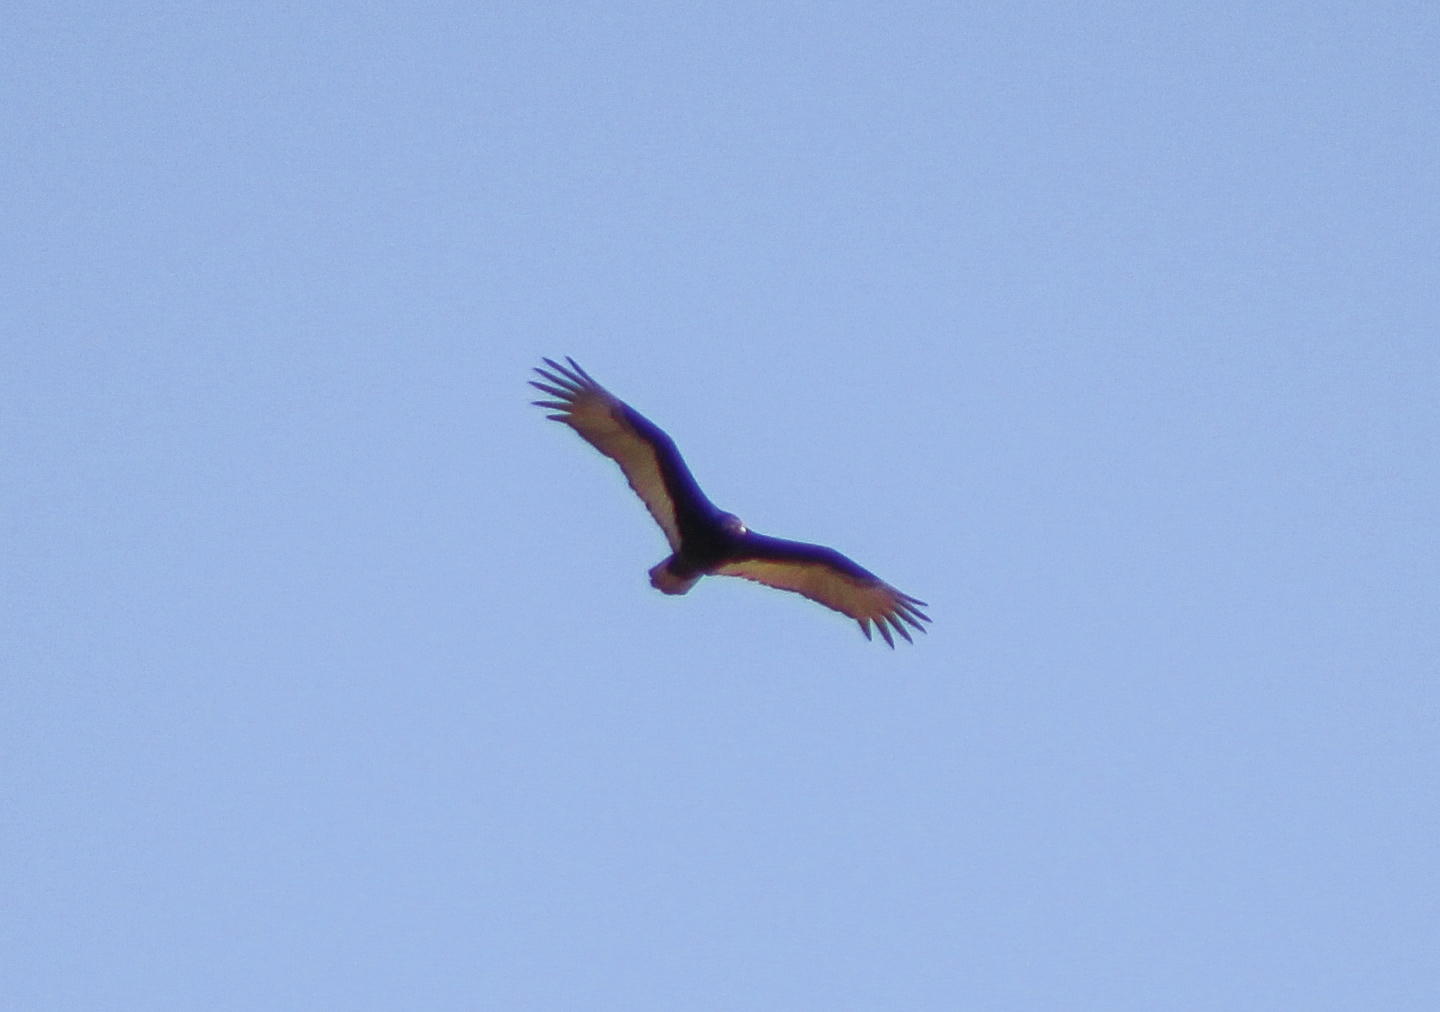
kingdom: Animalia
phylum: Chordata
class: Aves
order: Accipitriformes
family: Cathartidae
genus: Cathartes
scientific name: Cathartes aura
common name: Turkey vulture
